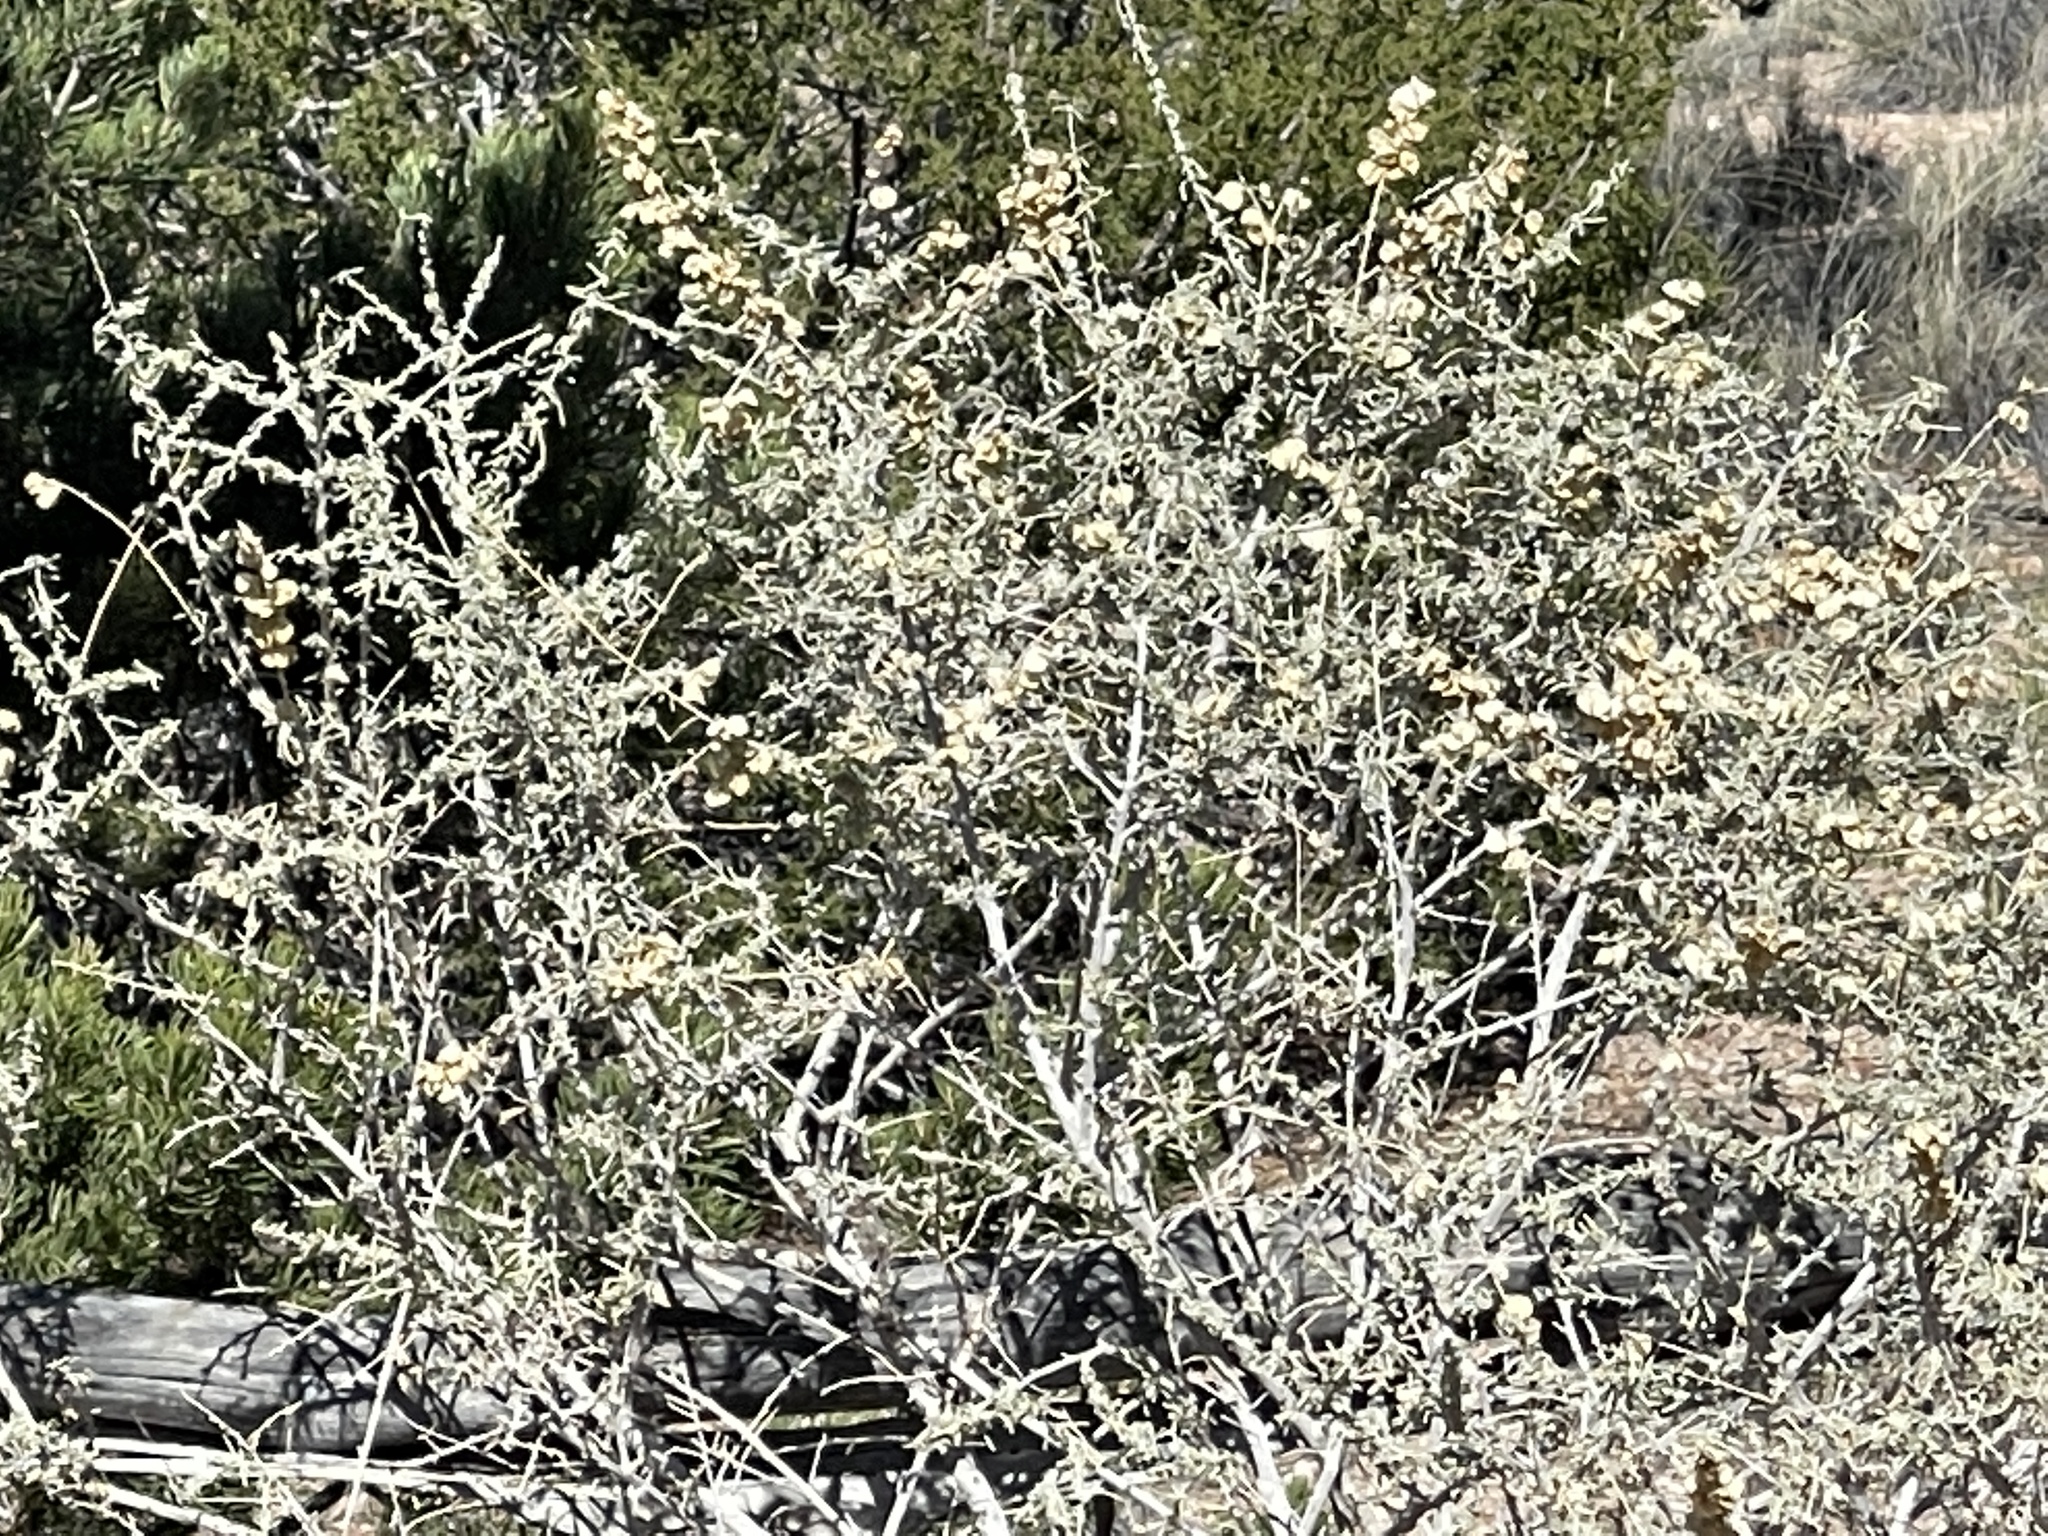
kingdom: Plantae
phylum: Tracheophyta
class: Magnoliopsida
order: Caryophyllales
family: Amaranthaceae
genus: Atriplex
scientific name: Atriplex canescens
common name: Four-wing saltbush
